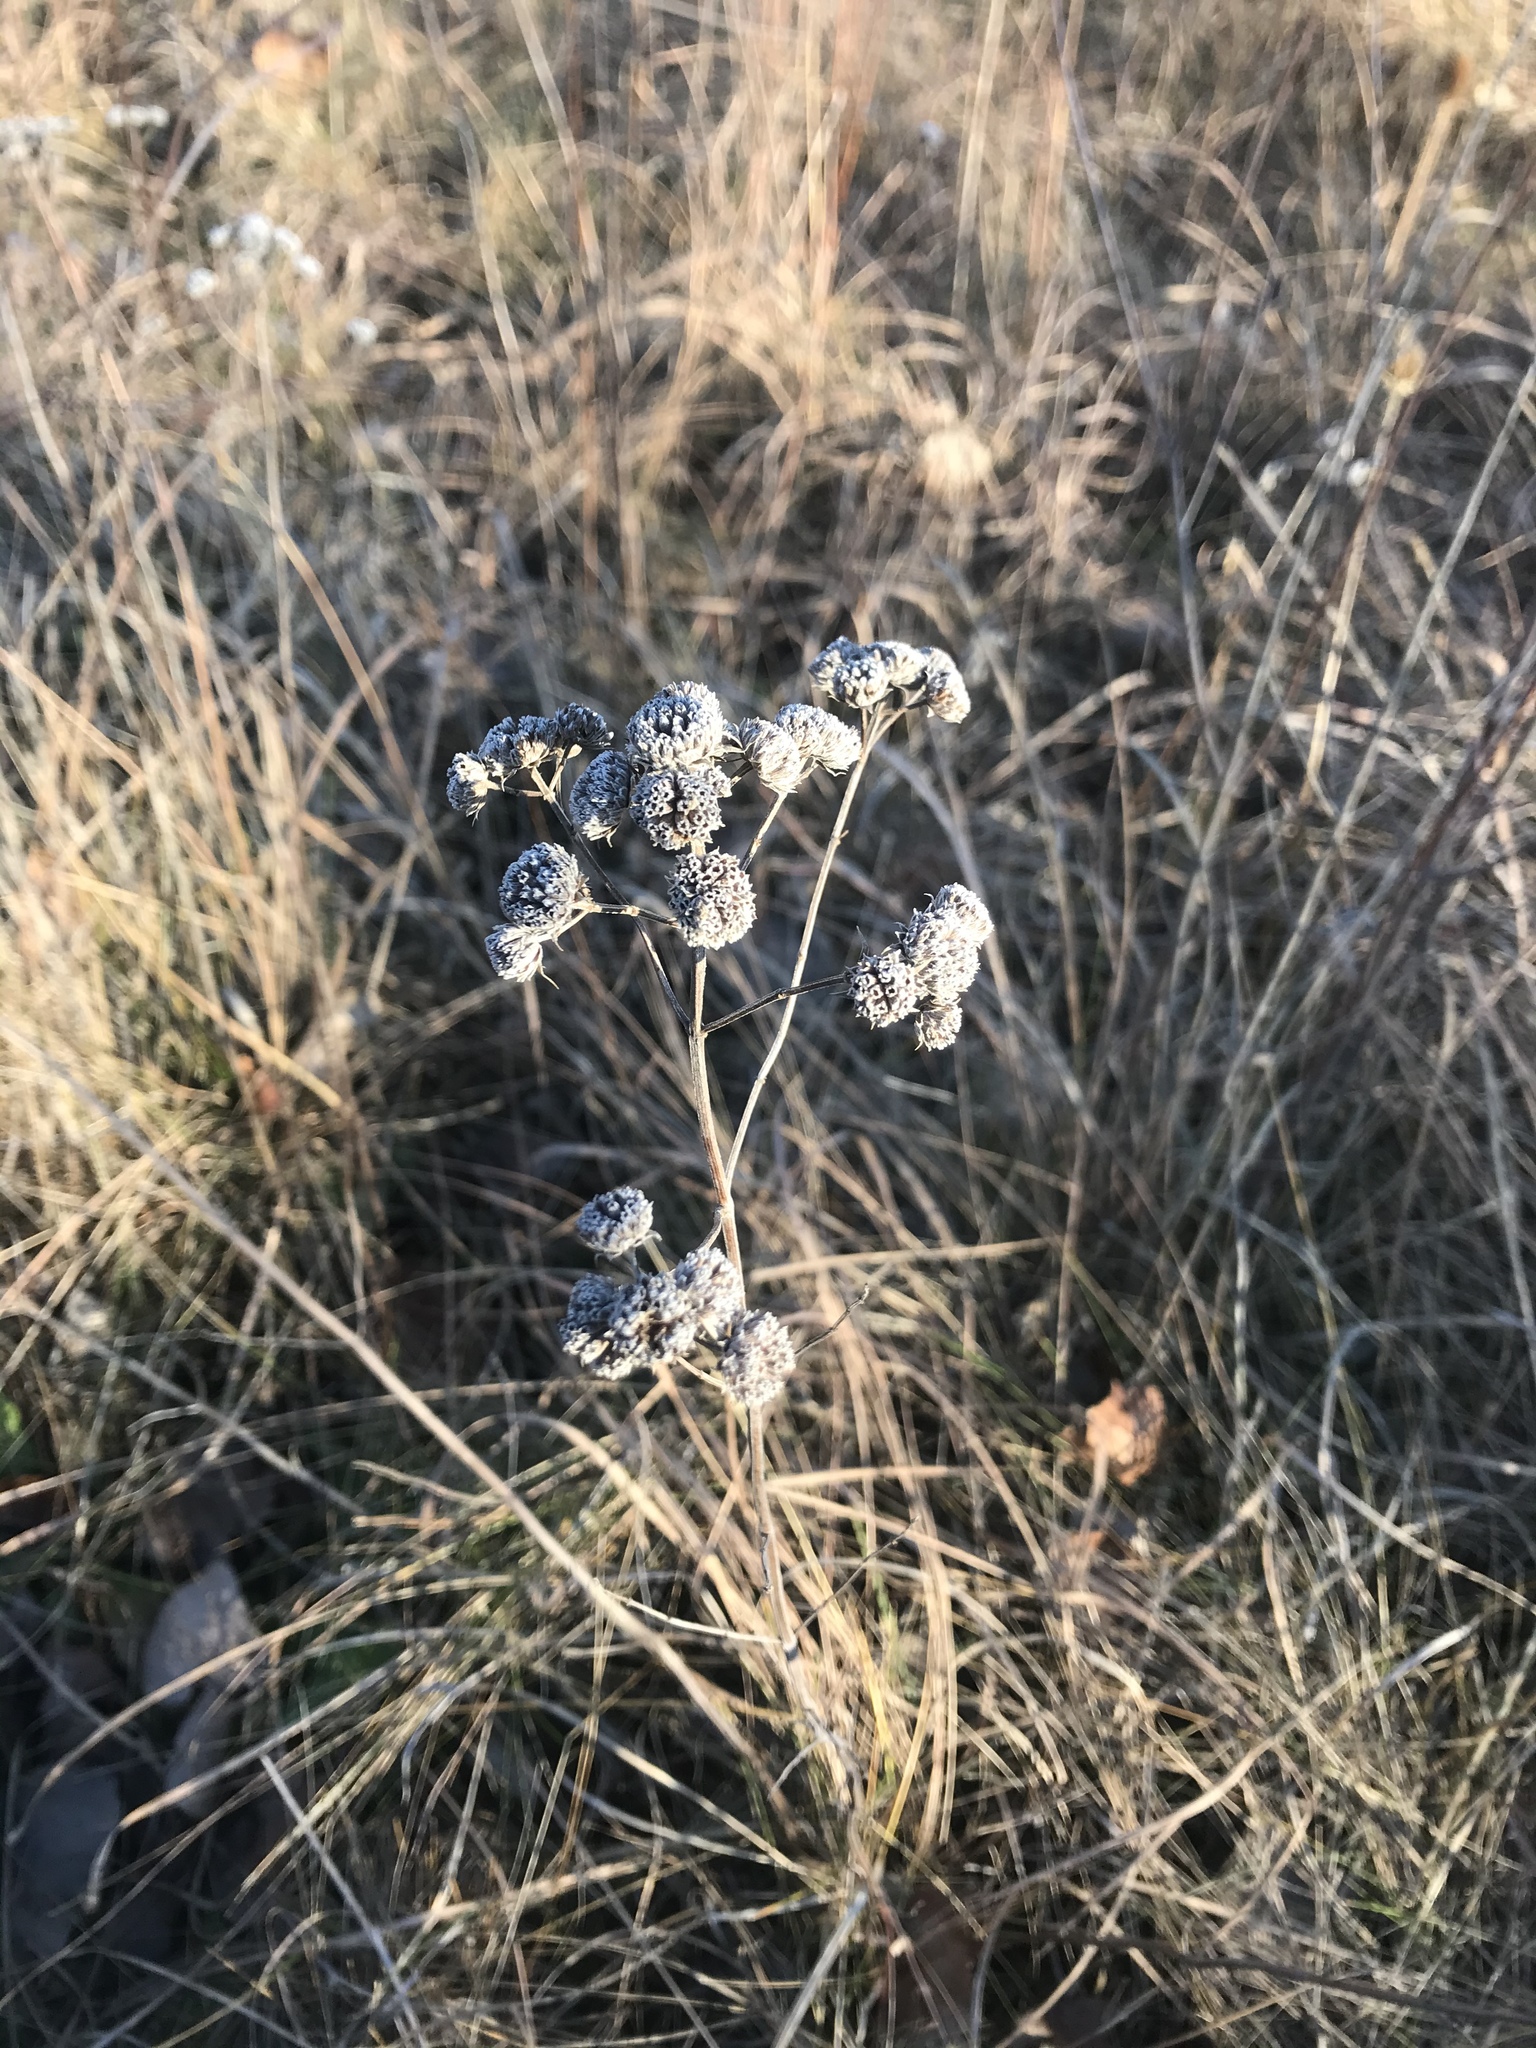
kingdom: Plantae
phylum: Tracheophyta
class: Magnoliopsida
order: Lamiales
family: Lamiaceae
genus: Pycnanthemum
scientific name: Pycnanthemum virginianum
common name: Virginia mountain-mint
